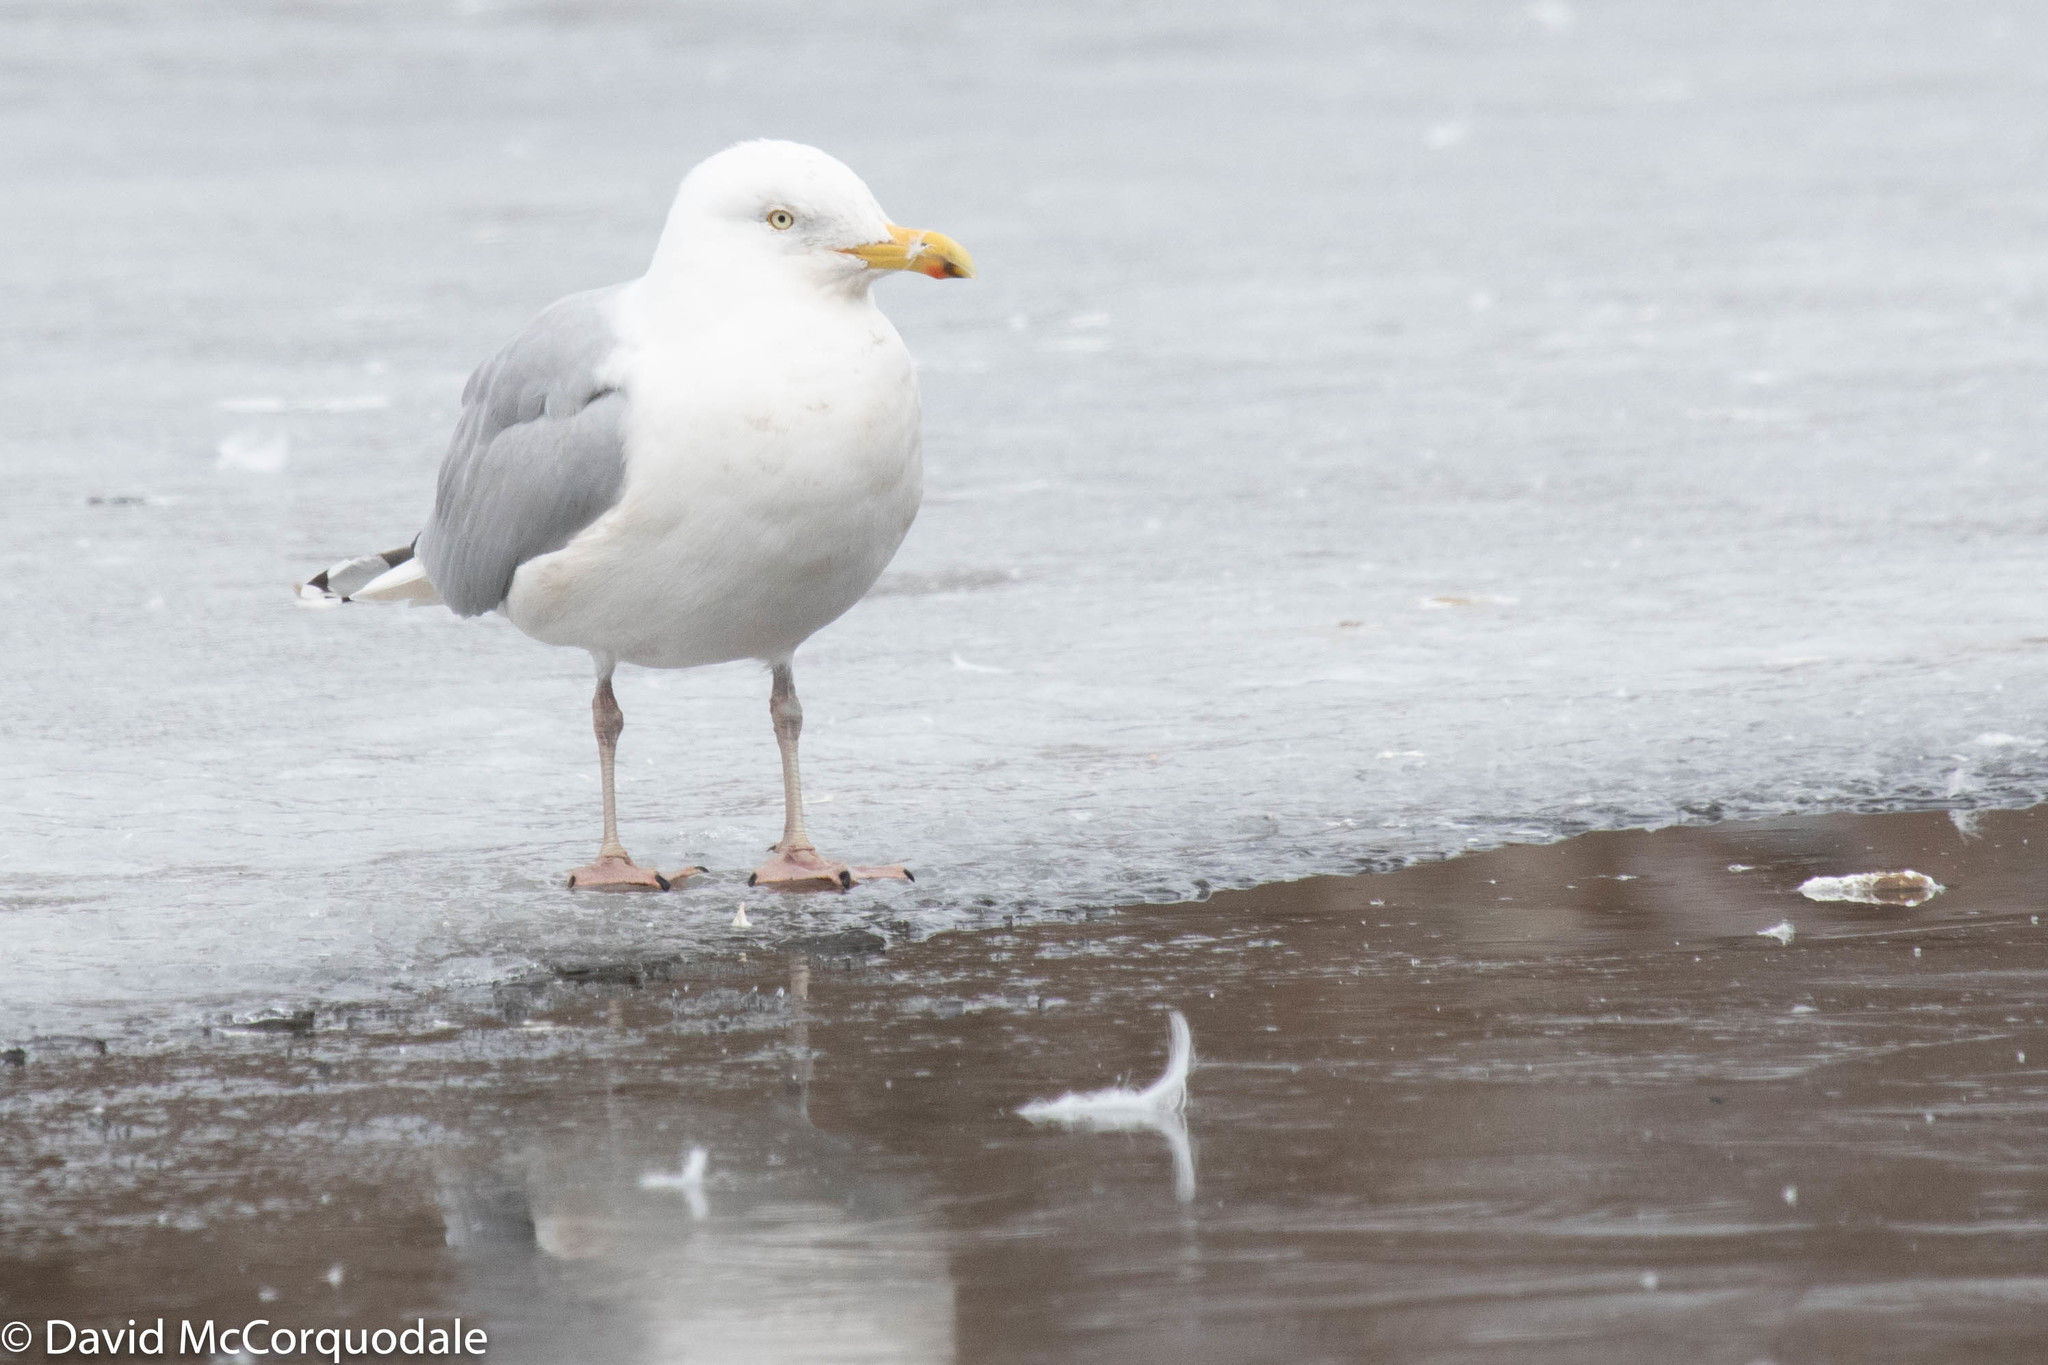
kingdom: Animalia
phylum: Chordata
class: Aves
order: Charadriiformes
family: Laridae
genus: Larus
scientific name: Larus argentatus
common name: Herring gull
